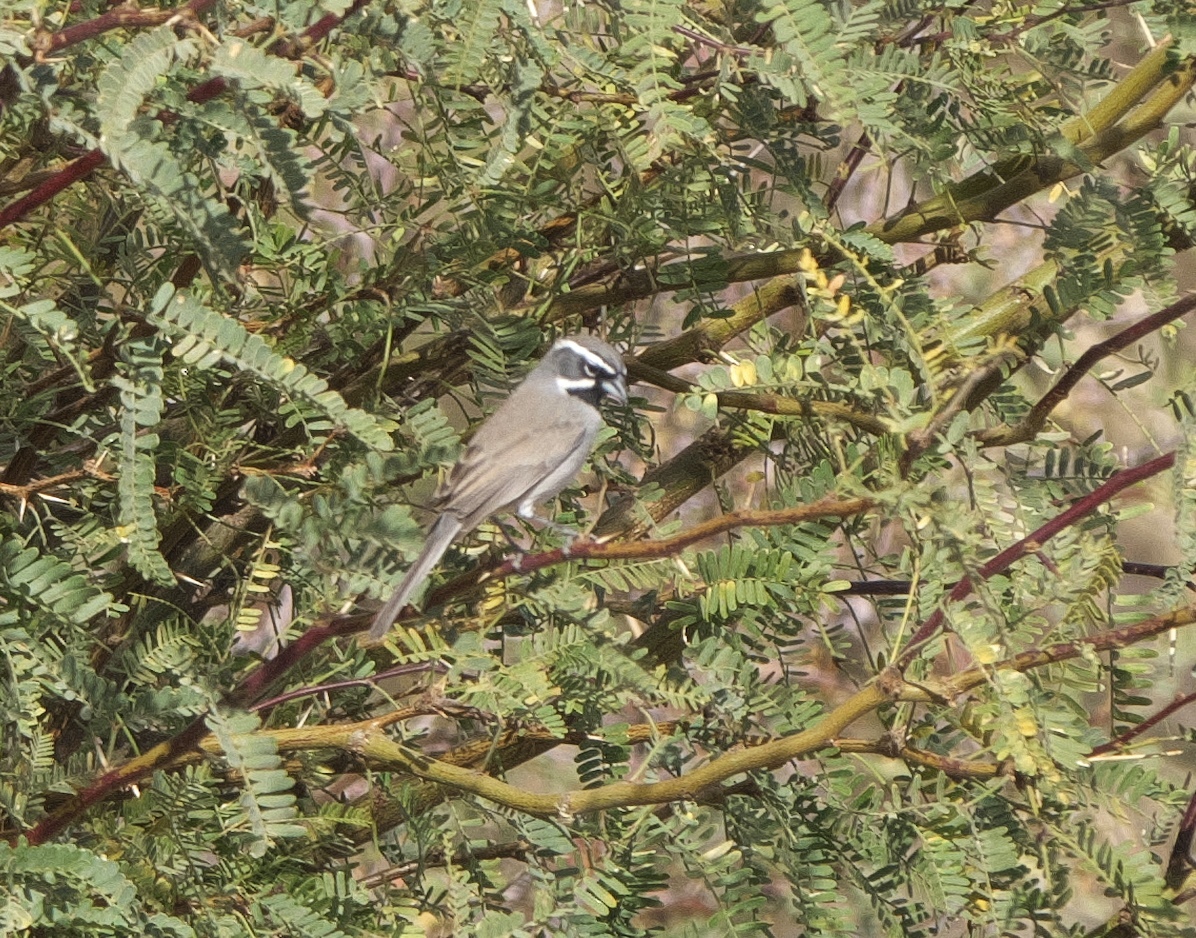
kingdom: Animalia
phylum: Chordata
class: Aves
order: Passeriformes
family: Passerellidae
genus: Amphispiza
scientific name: Amphispiza bilineata
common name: Black-throated sparrow
